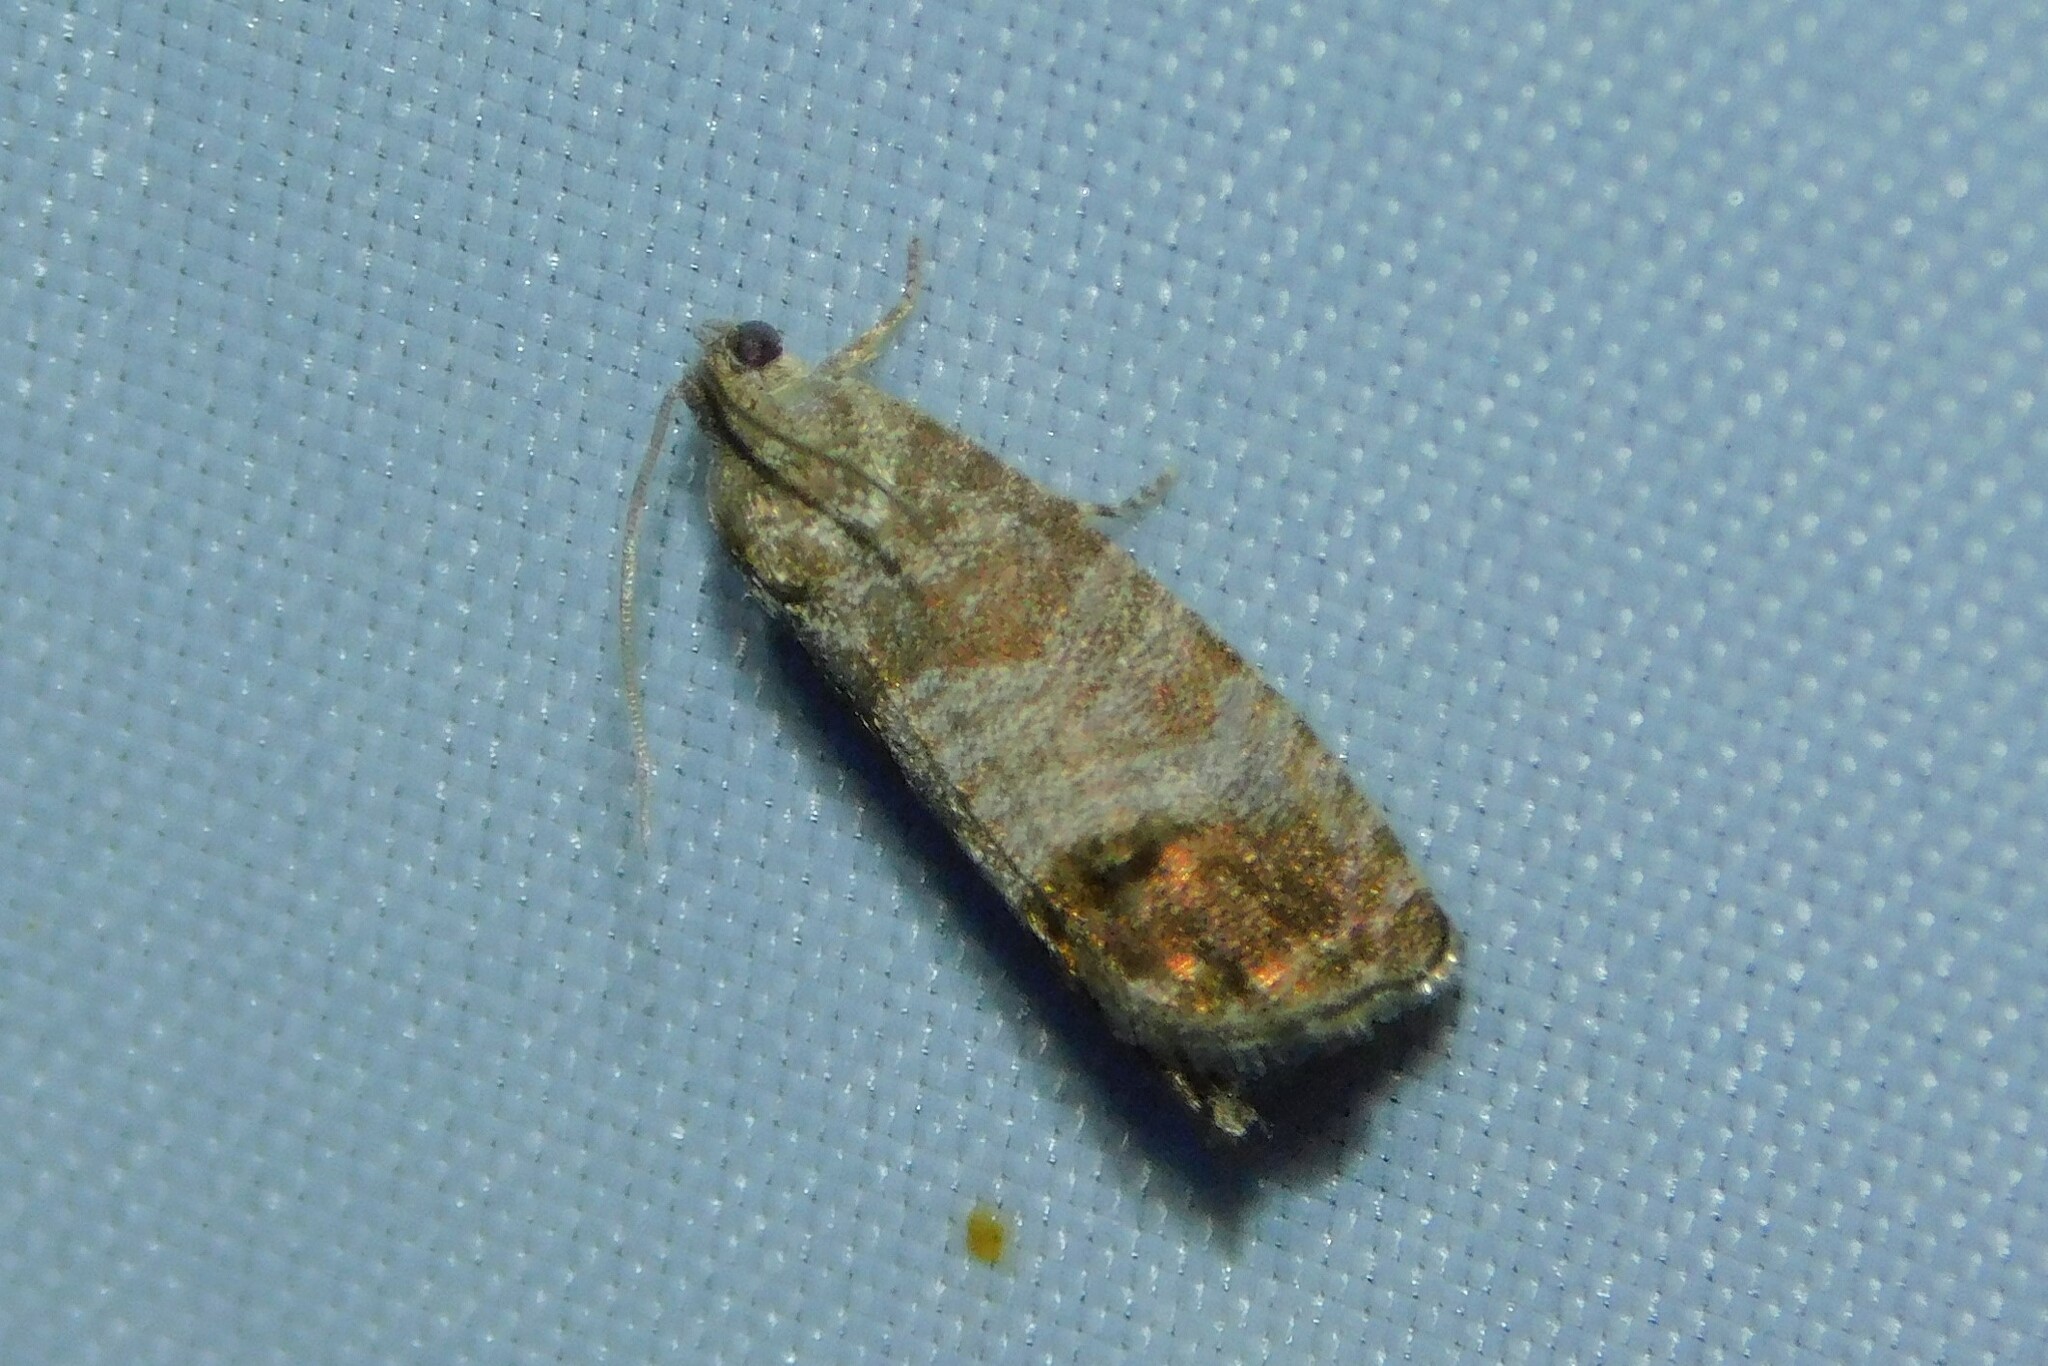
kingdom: Animalia
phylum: Arthropoda
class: Insecta
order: Lepidoptera
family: Tortricidae
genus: Cydia
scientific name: Cydia pomonella
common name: Codling moth
